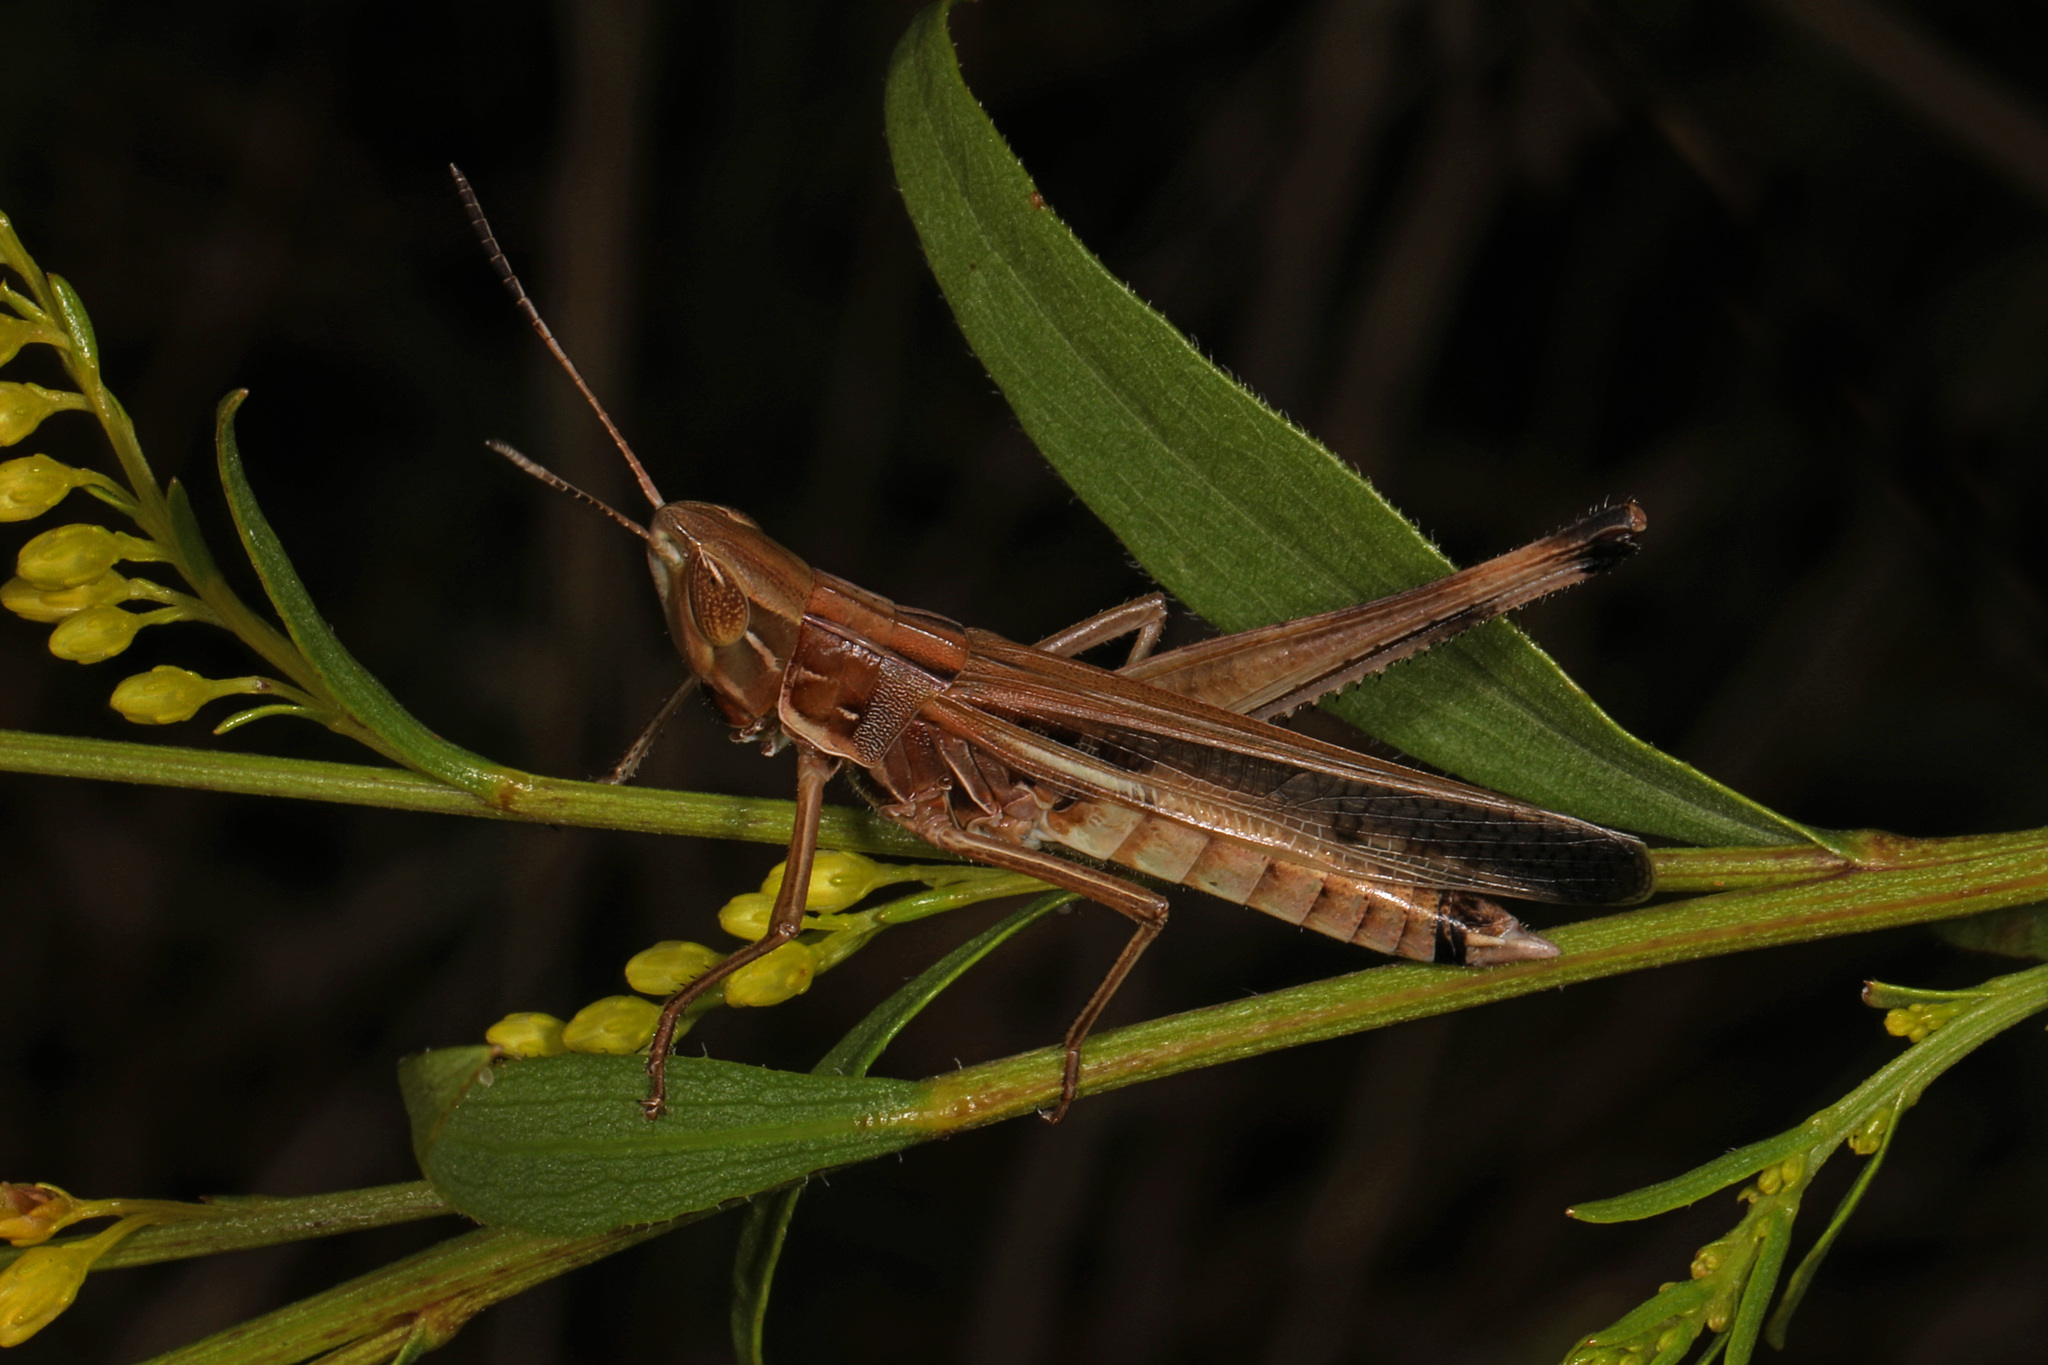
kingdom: Animalia
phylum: Arthropoda
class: Insecta
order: Orthoptera
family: Acrididae
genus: Syrbula
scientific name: Syrbula admirabilis
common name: Handsome grasshopper
